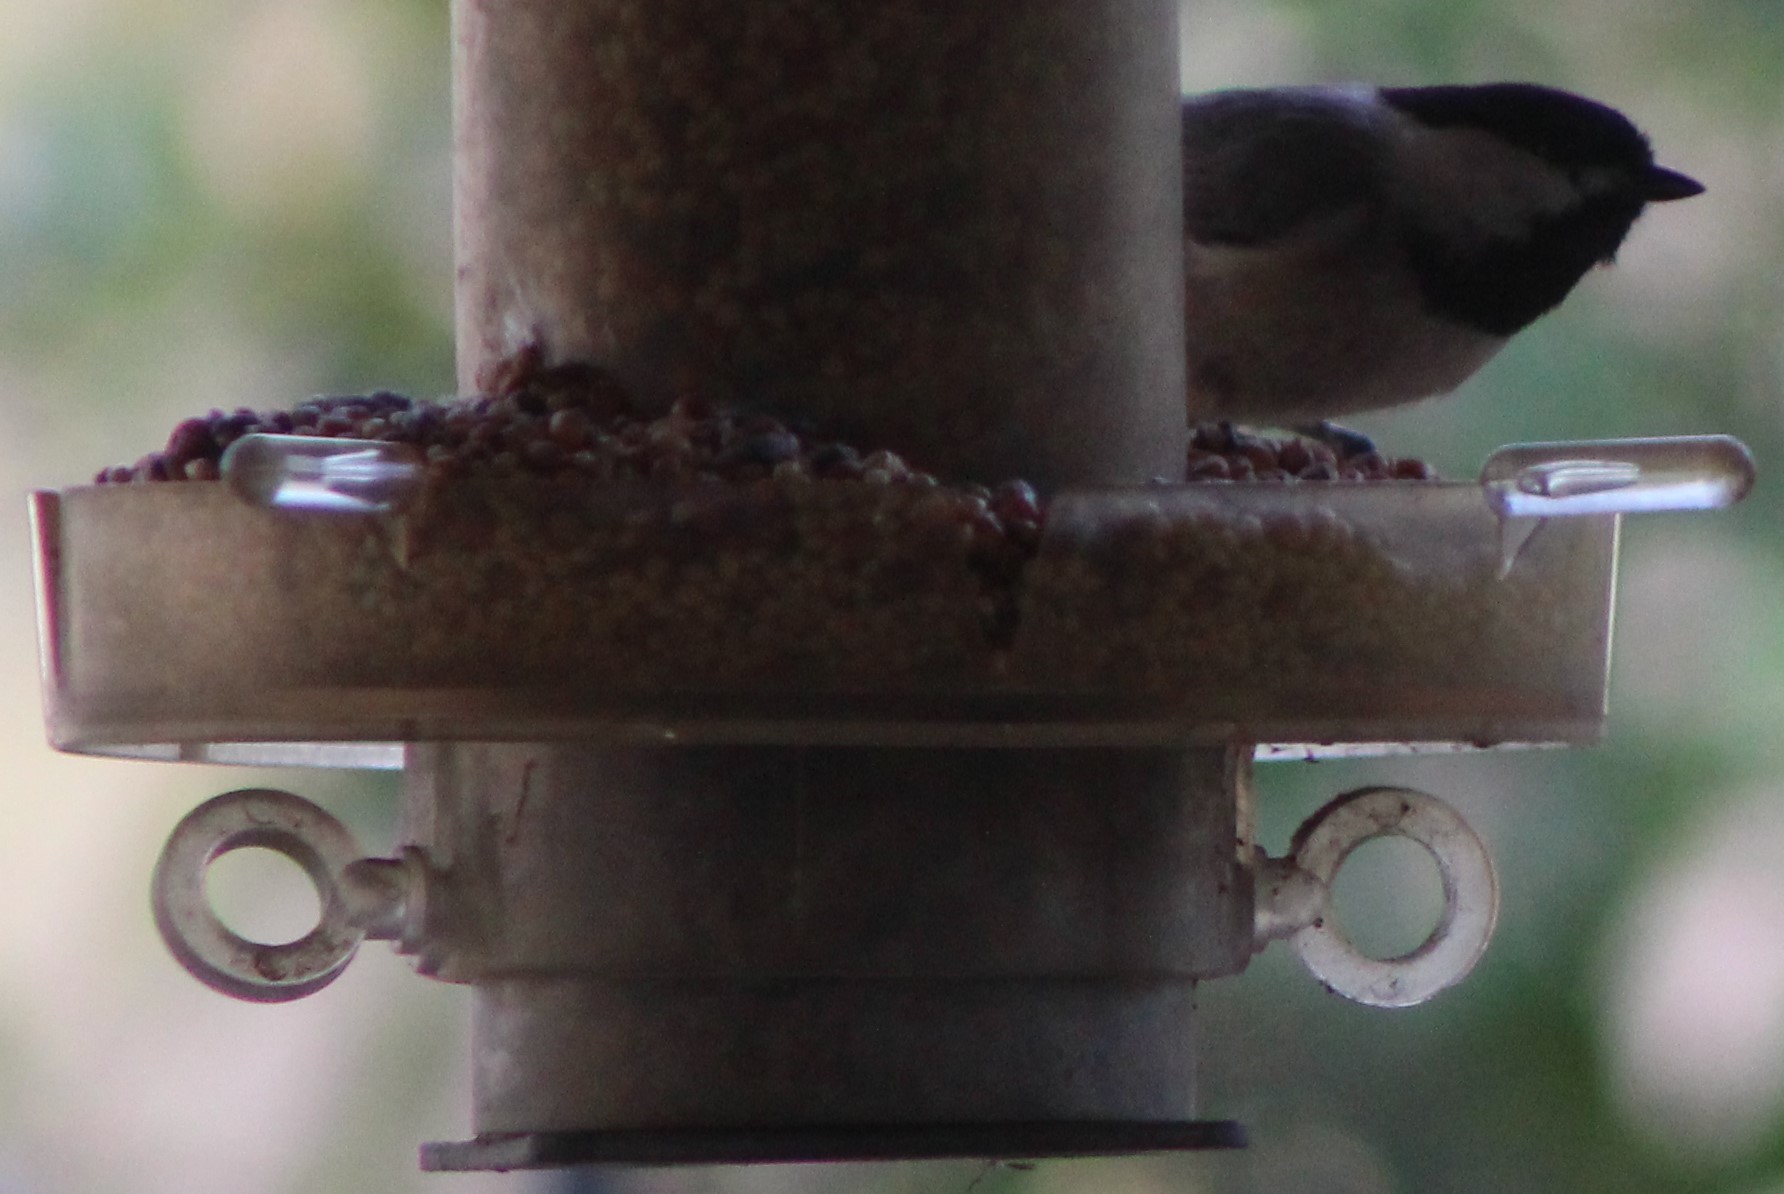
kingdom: Animalia
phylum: Chordata
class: Aves
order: Passeriformes
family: Paridae
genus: Poecile
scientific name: Poecile carolinensis
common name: Carolina chickadee
